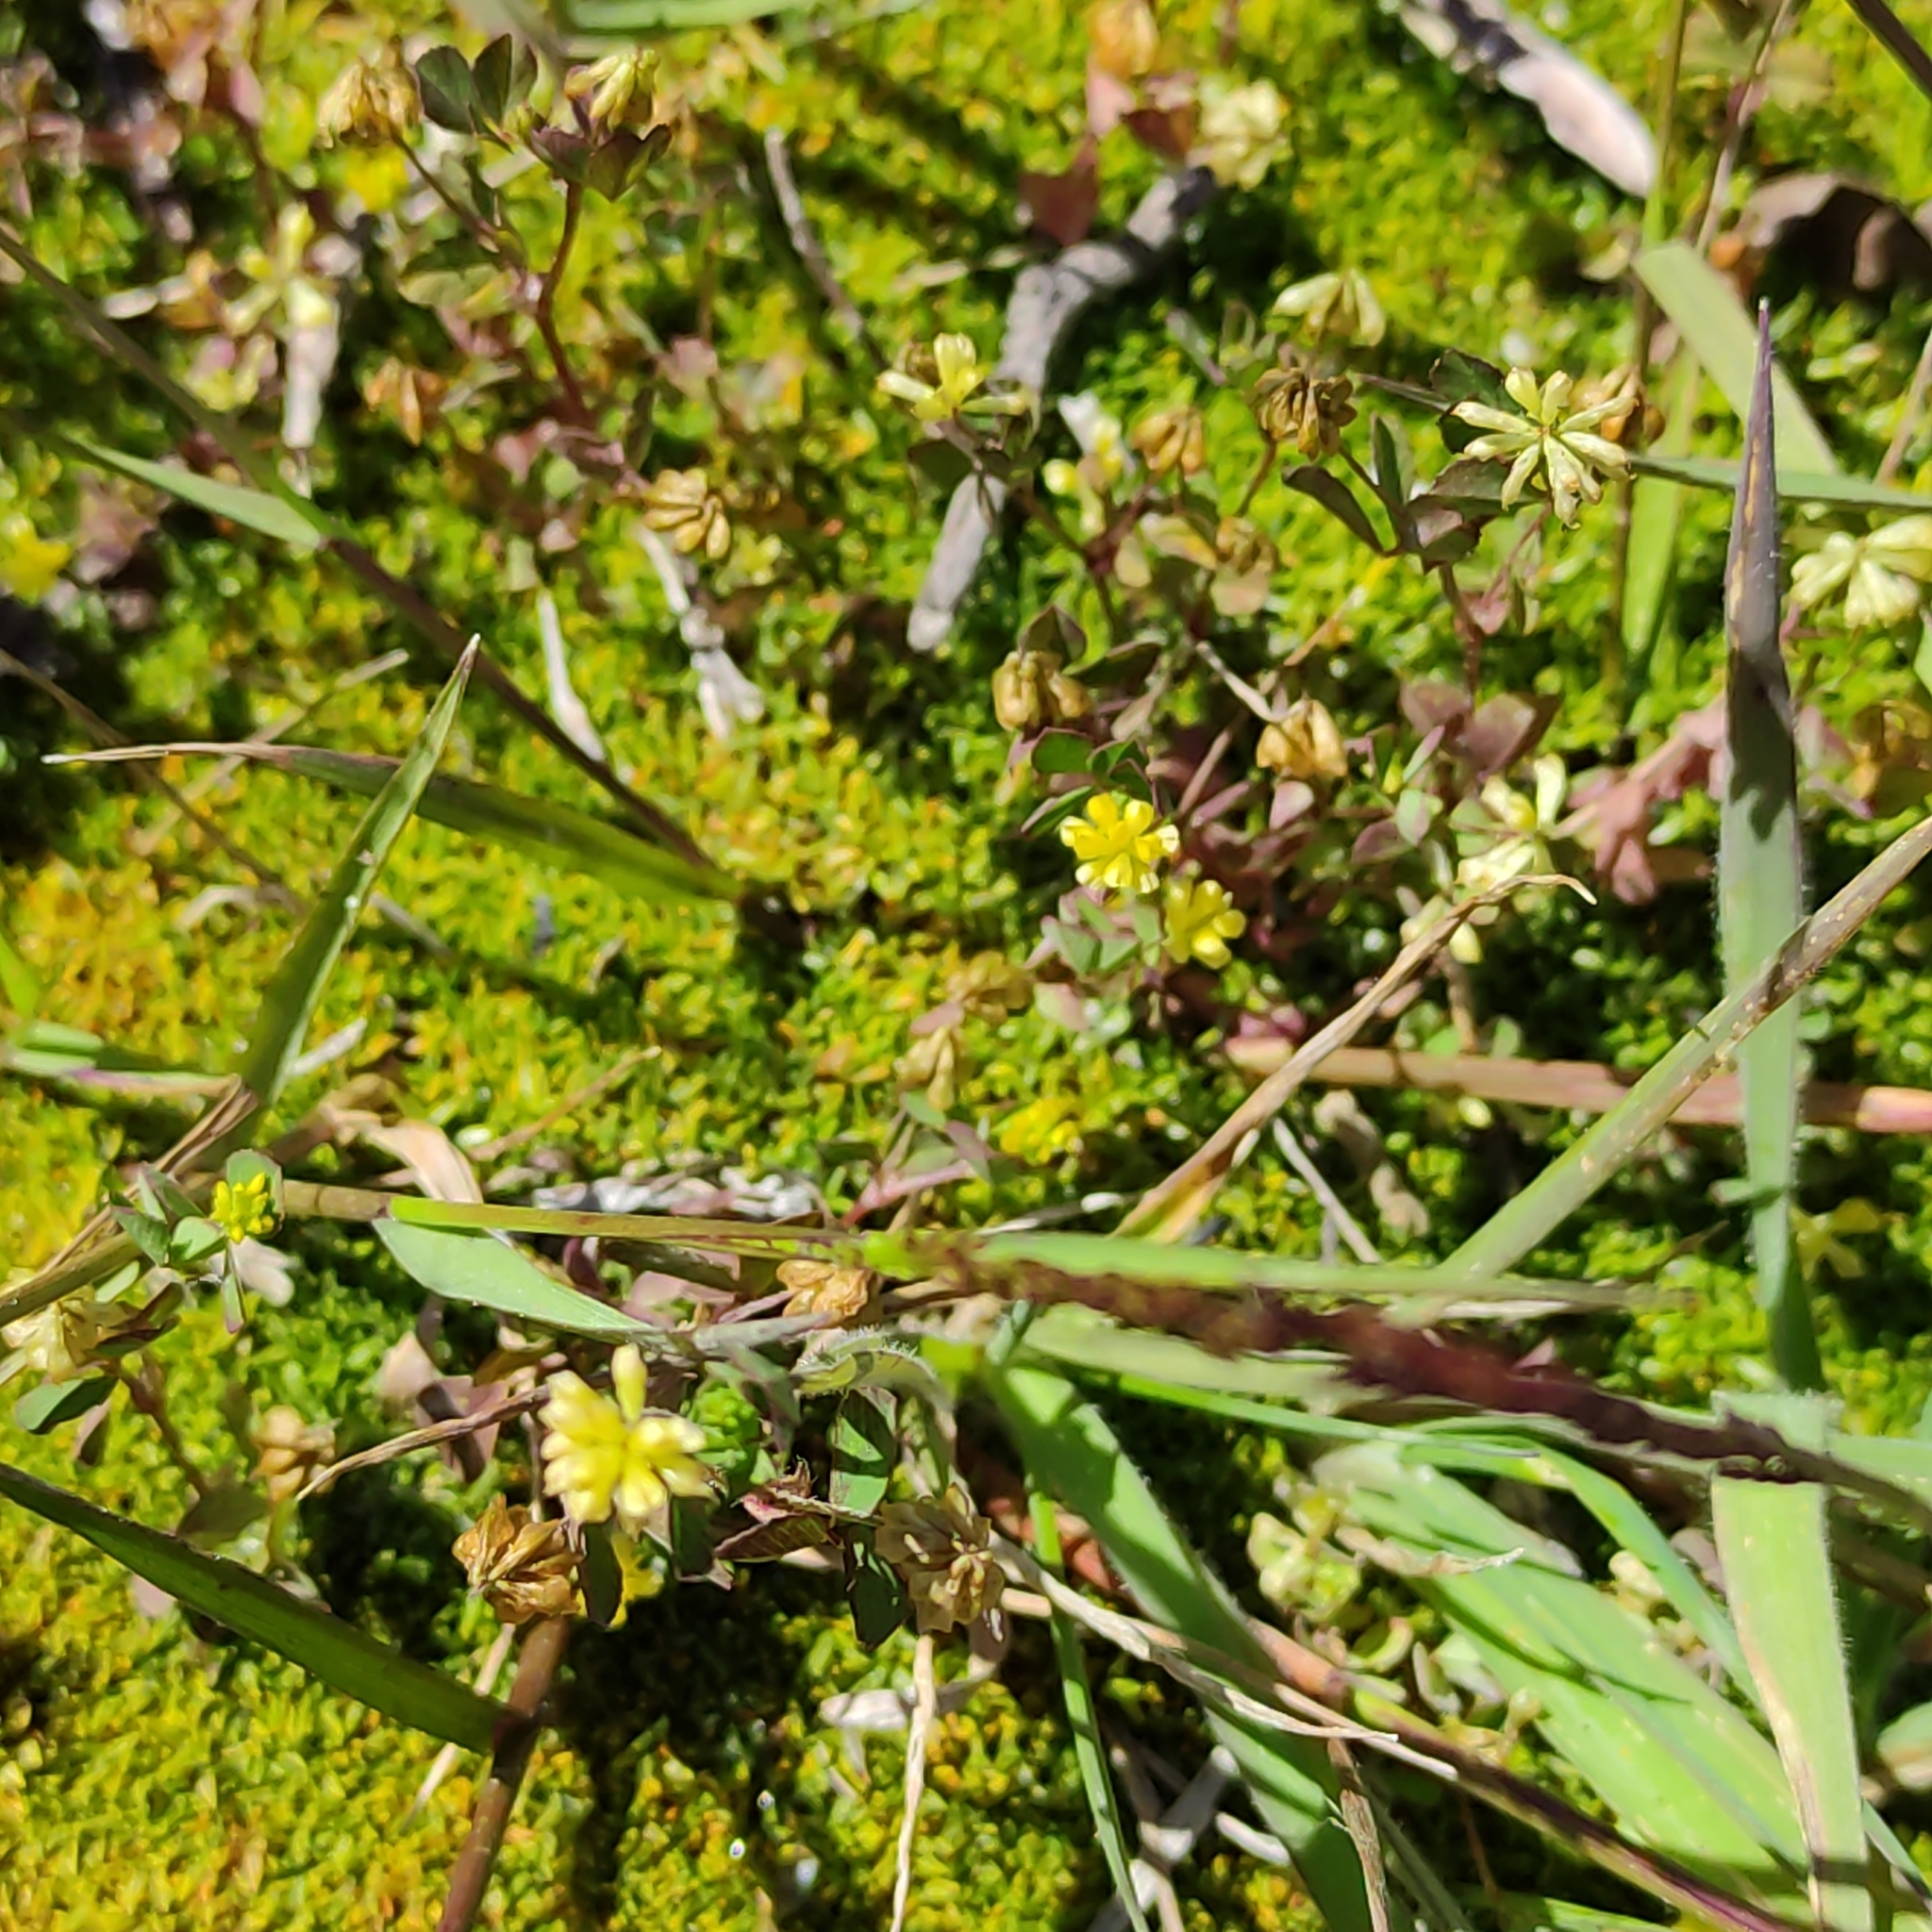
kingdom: Plantae
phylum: Tracheophyta
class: Magnoliopsida
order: Fabales
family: Fabaceae
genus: Trifolium
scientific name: Trifolium dubium
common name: Suckling clover
